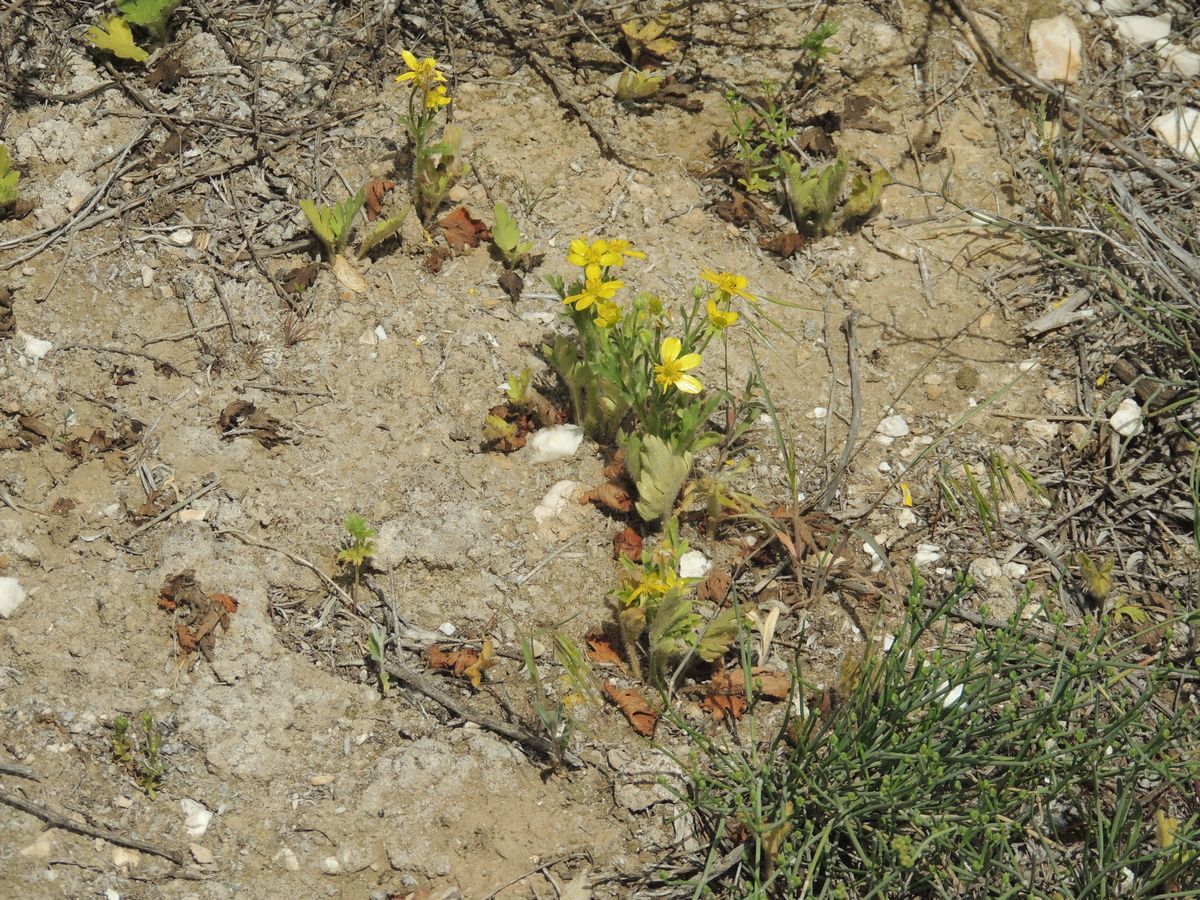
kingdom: Plantae
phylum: Tracheophyta
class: Magnoliopsida
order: Ranunculales
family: Ranunculaceae
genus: Ranunculus
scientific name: Ranunculus oxyspermus
